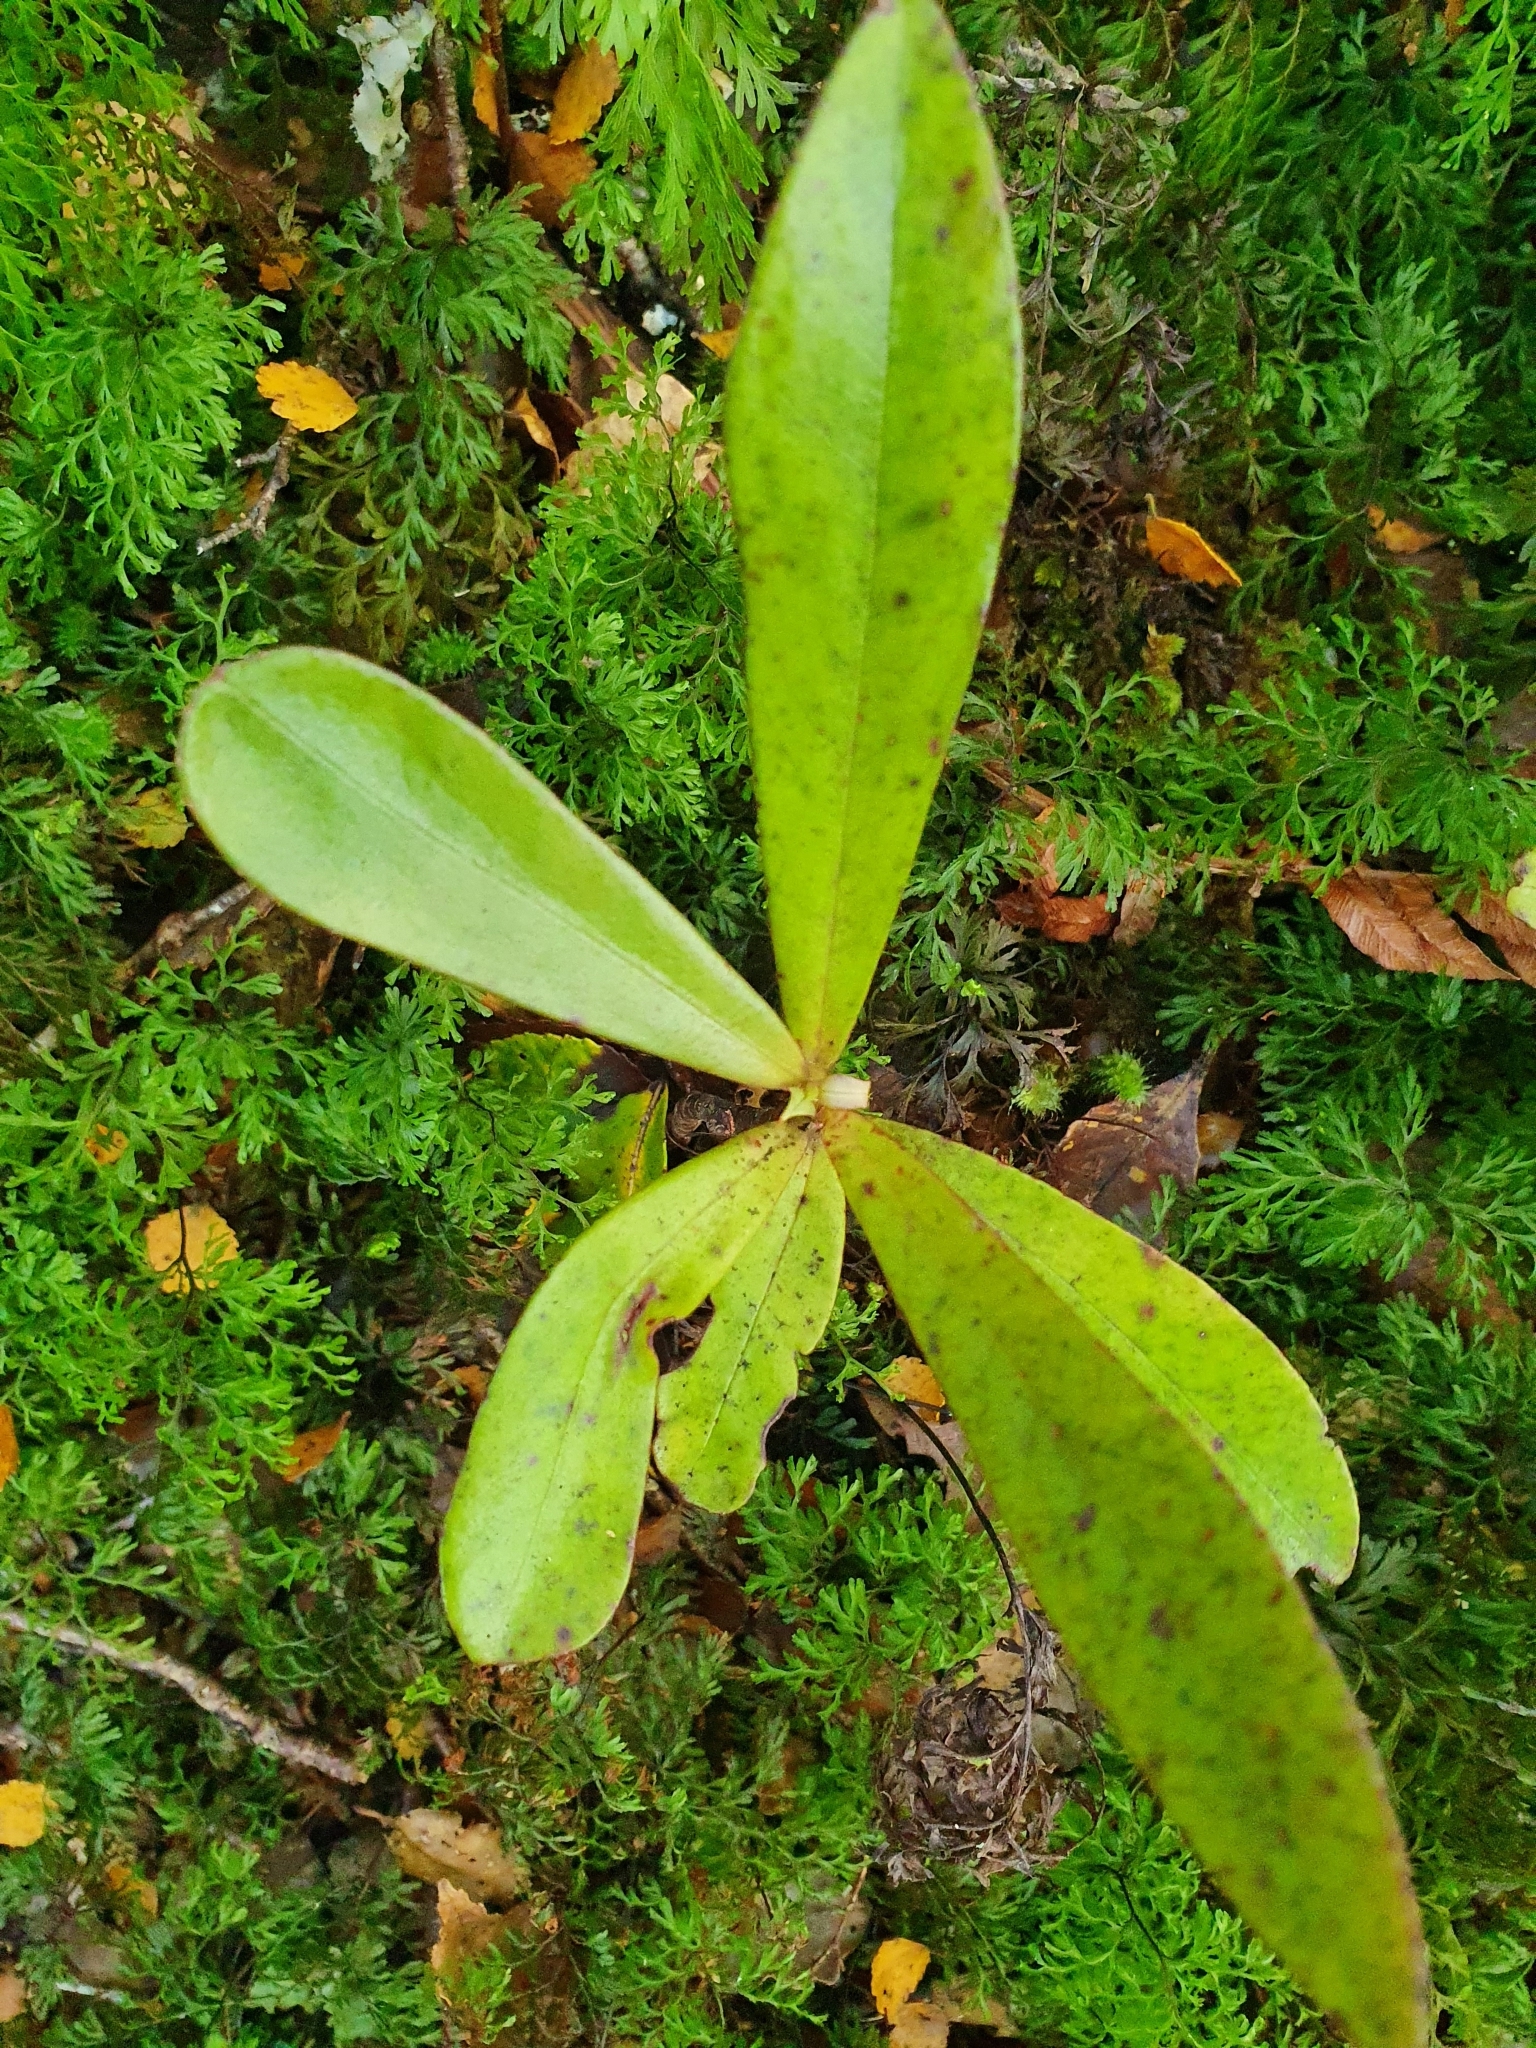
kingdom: Plantae
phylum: Tracheophyta
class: Magnoliopsida
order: Ericales
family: Primulaceae
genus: Myrsine
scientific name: Myrsine salicina
